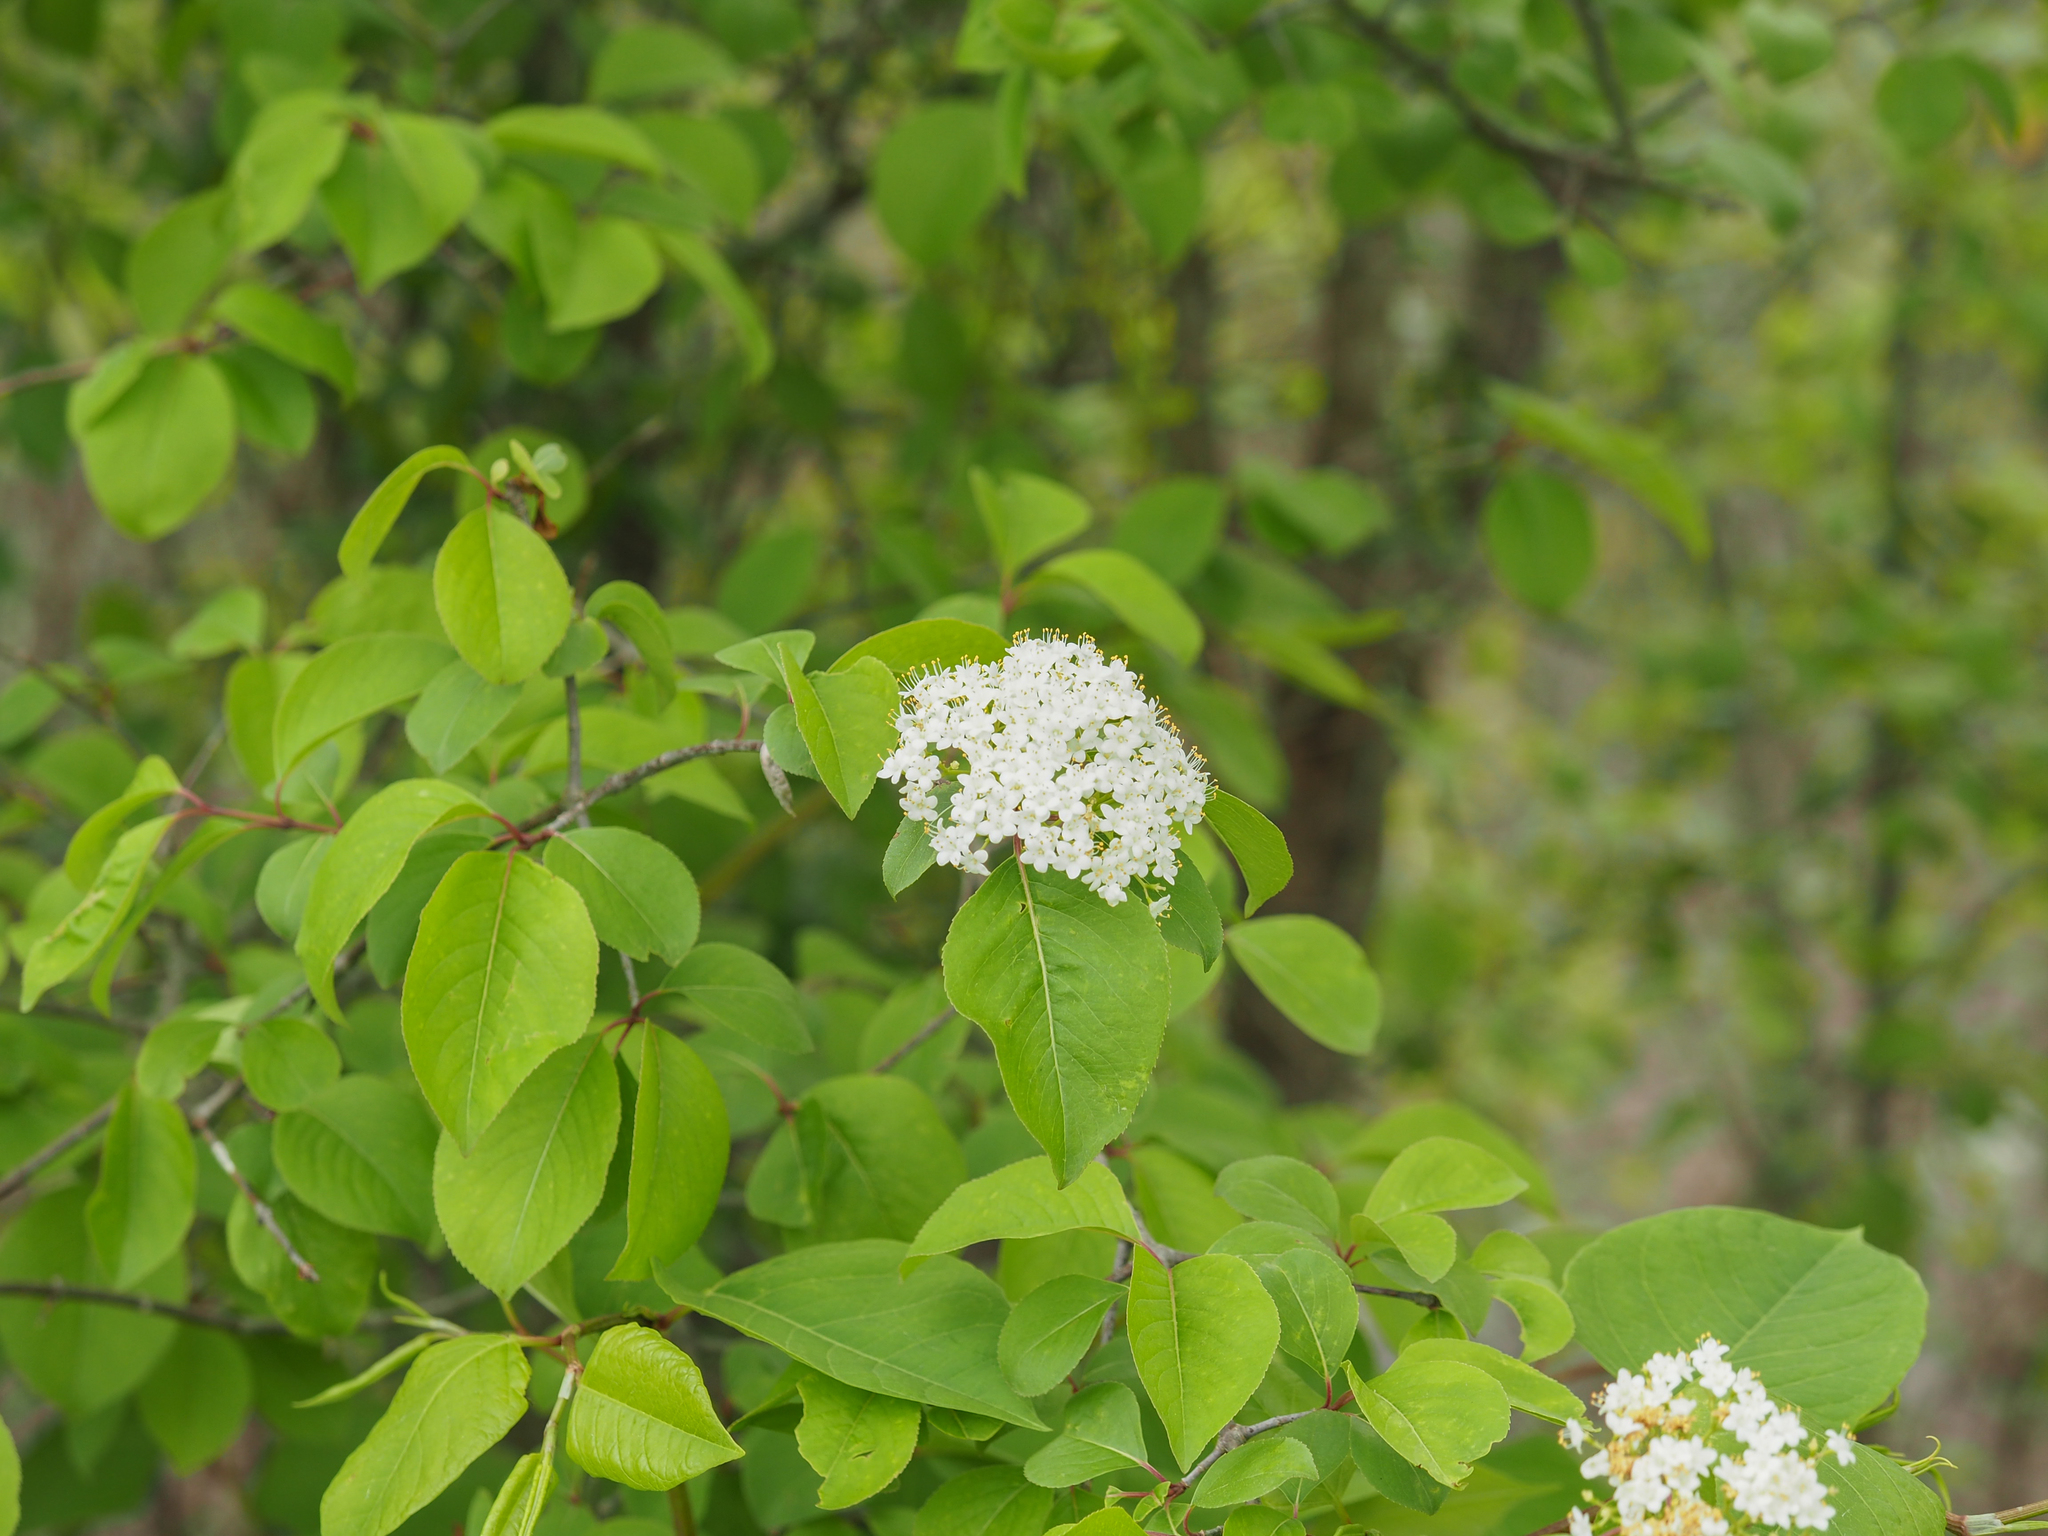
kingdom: Plantae
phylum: Tracheophyta
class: Magnoliopsida
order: Dipsacales
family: Viburnaceae
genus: Viburnum
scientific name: Viburnum prunifolium
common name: Black haw
